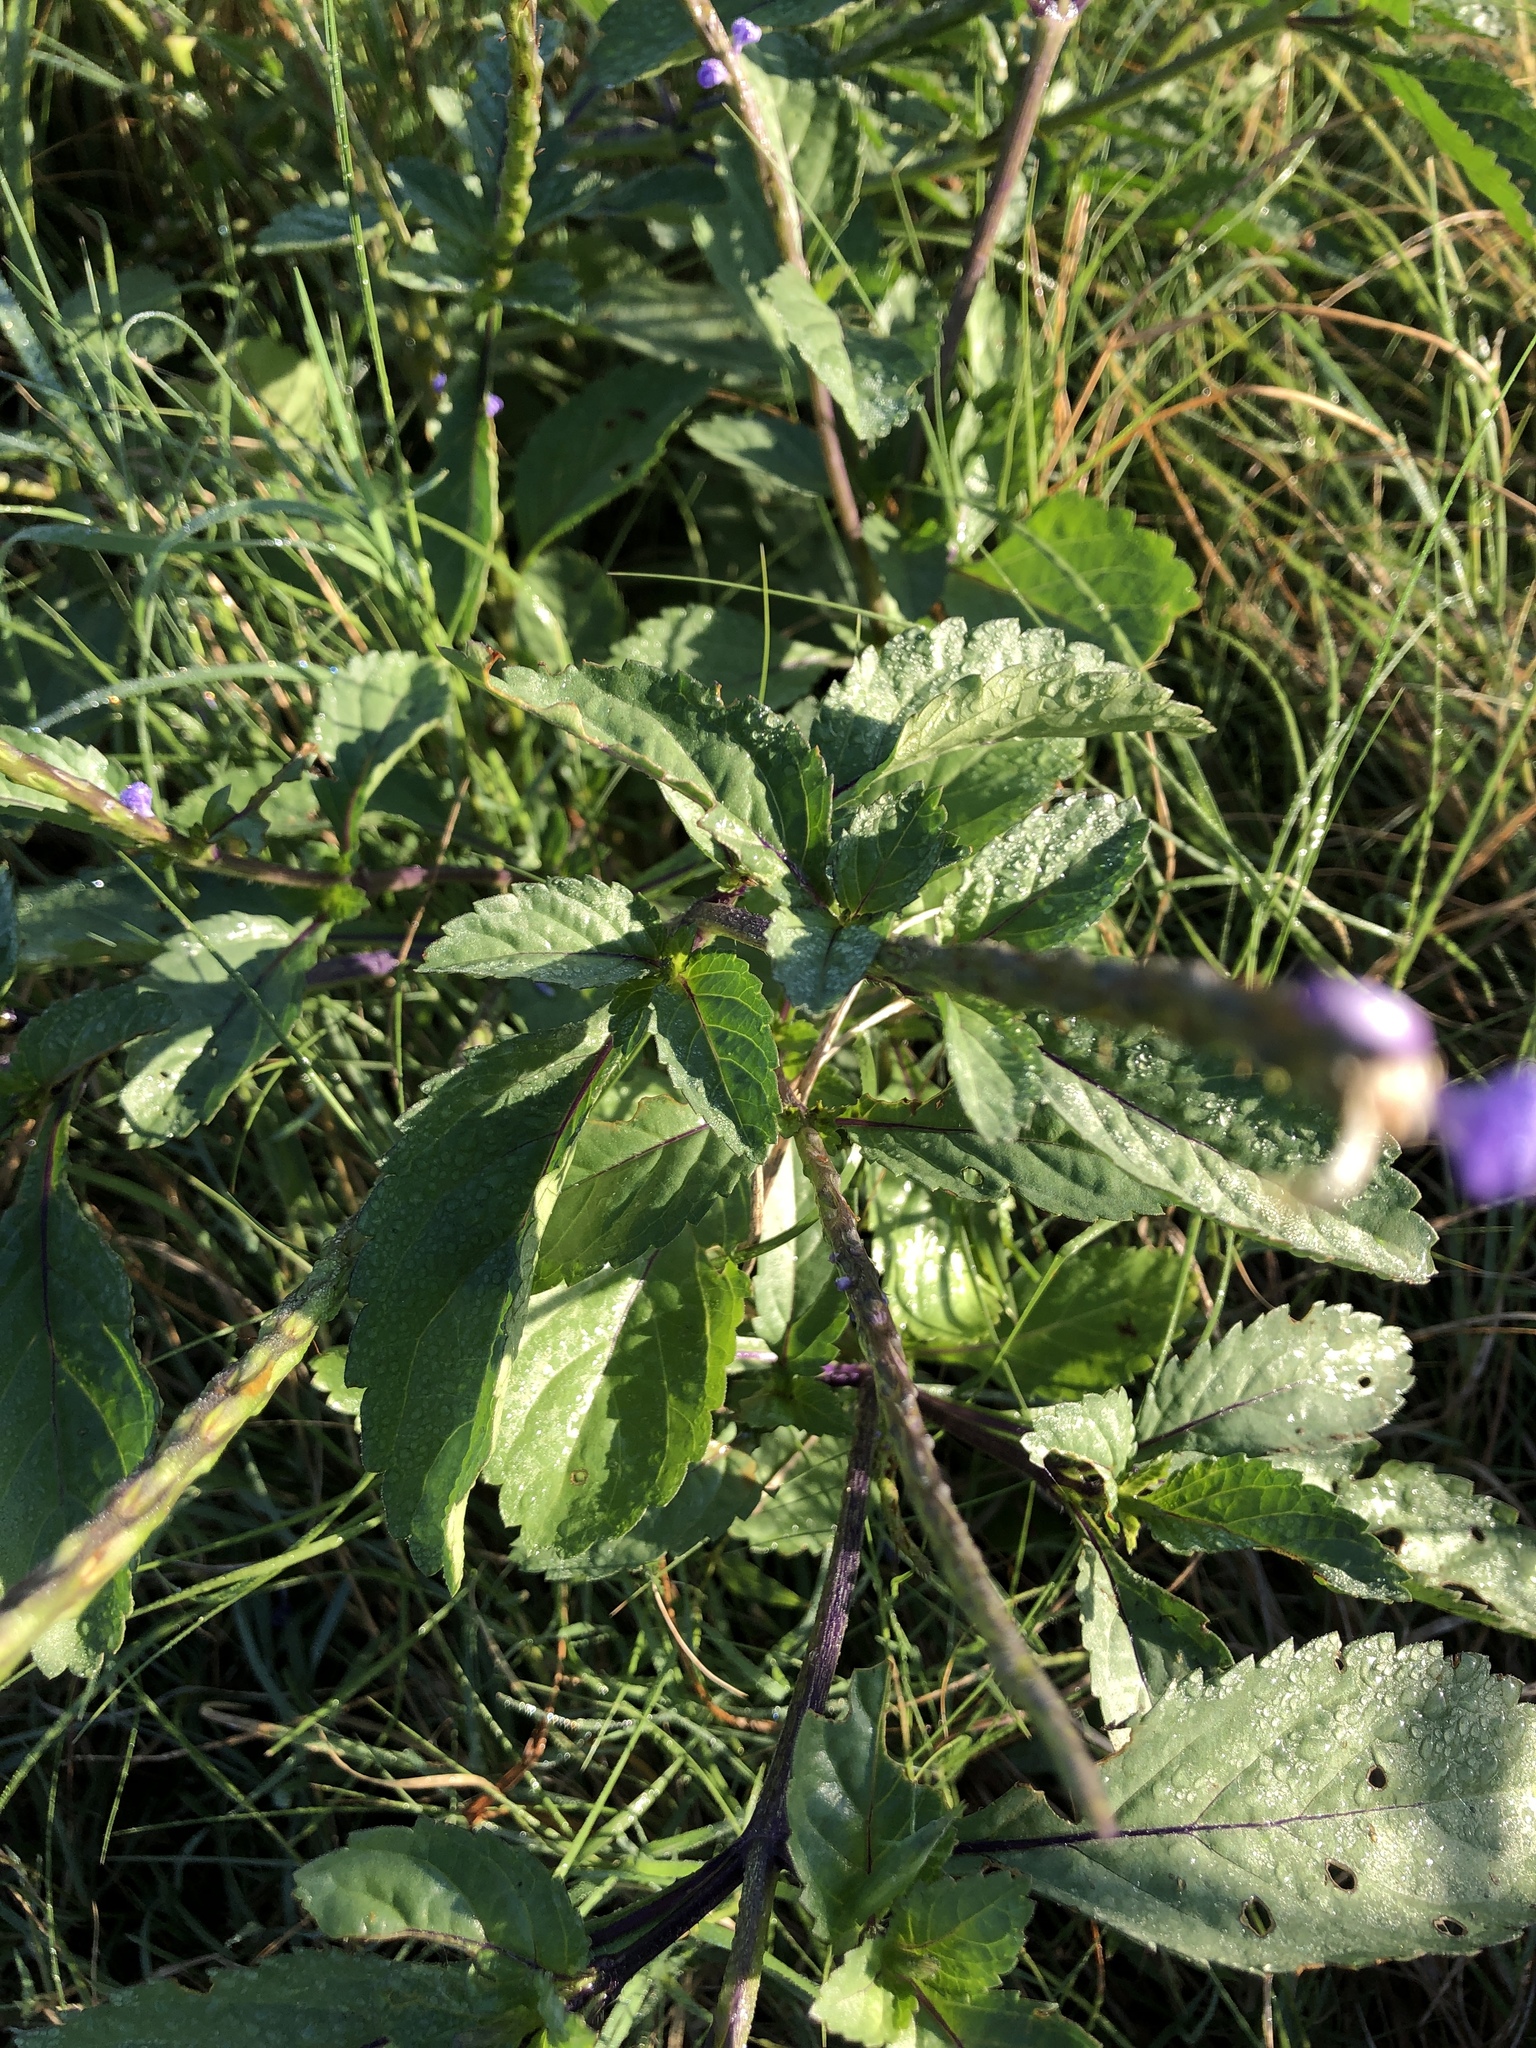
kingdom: Plantae
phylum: Tracheophyta
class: Magnoliopsida
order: Lamiales
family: Verbenaceae
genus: Stachytarpheta
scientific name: Stachytarpheta jamaicensis
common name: Light-blue snakeweed
